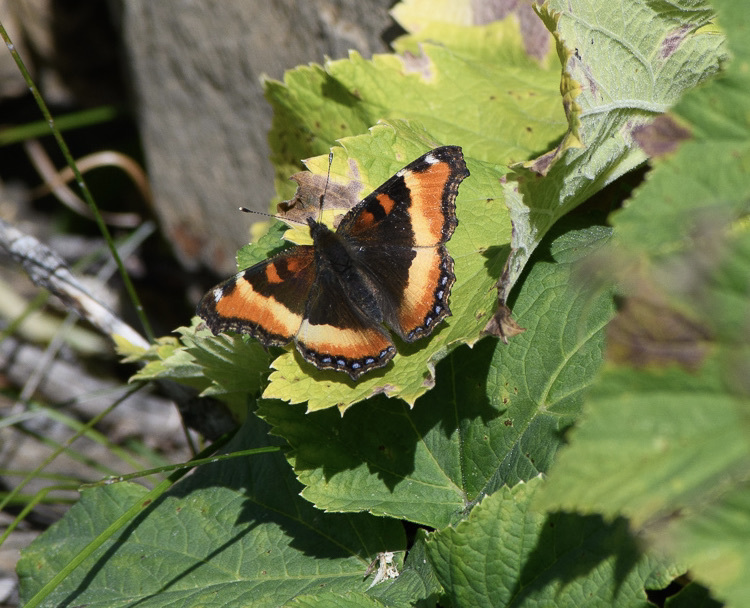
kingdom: Animalia
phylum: Arthropoda
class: Insecta
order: Lepidoptera
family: Nymphalidae
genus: Aglais
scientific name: Aglais milberti
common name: Milbert's tortoiseshell
